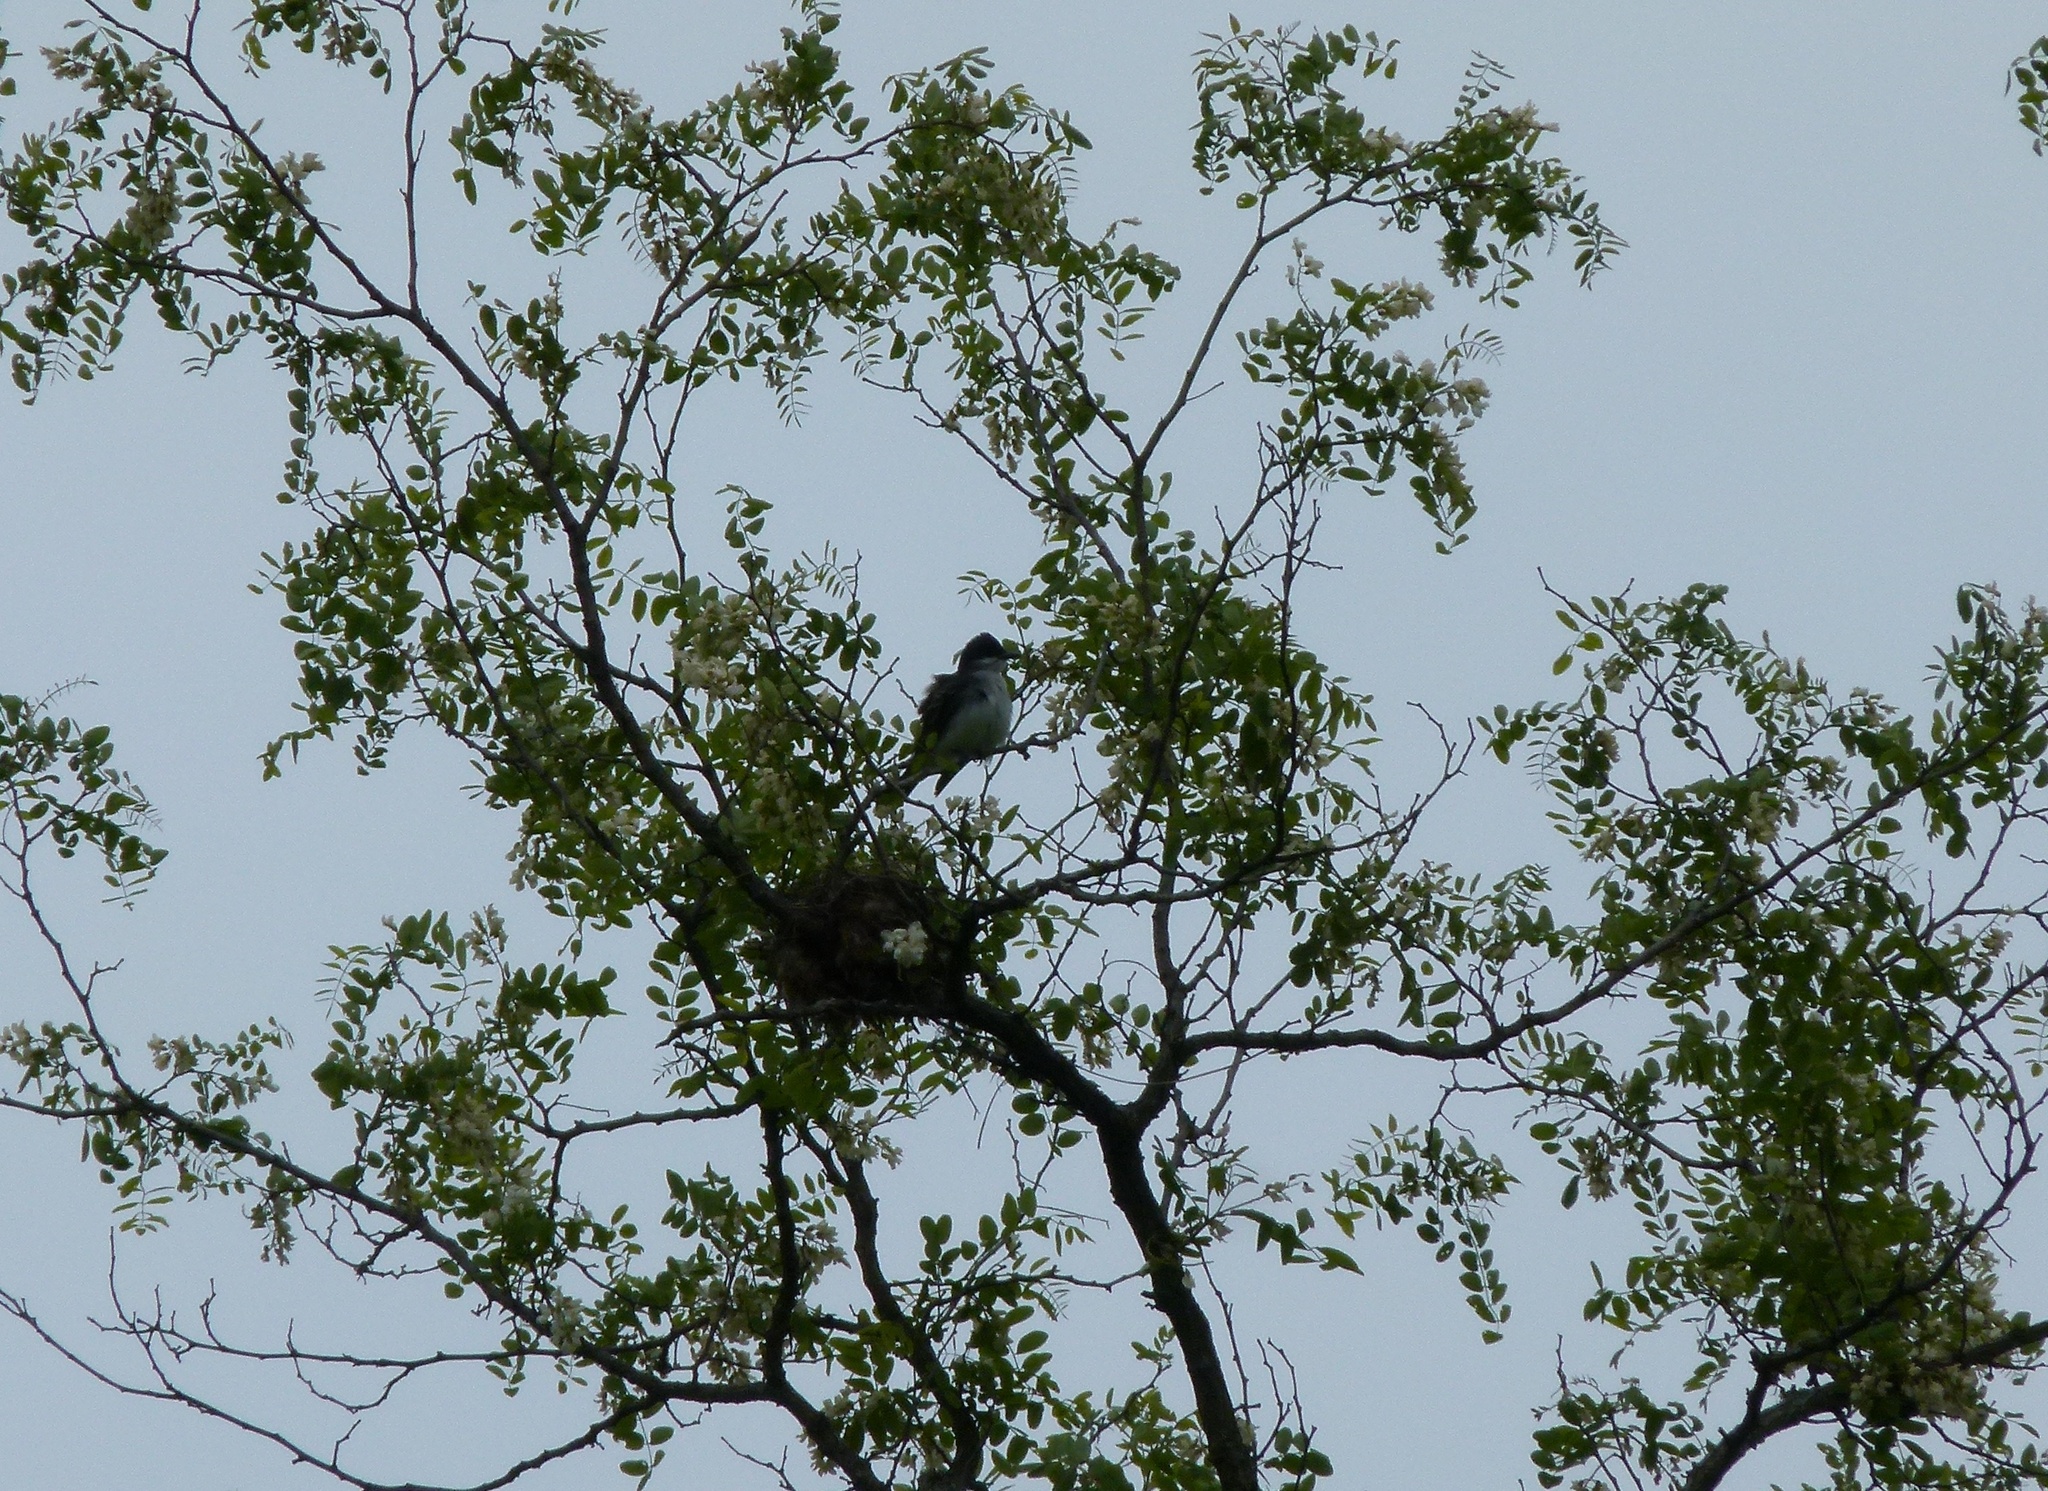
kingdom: Animalia
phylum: Chordata
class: Aves
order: Passeriformes
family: Tyrannidae
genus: Tyrannus
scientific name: Tyrannus tyrannus
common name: Eastern kingbird
